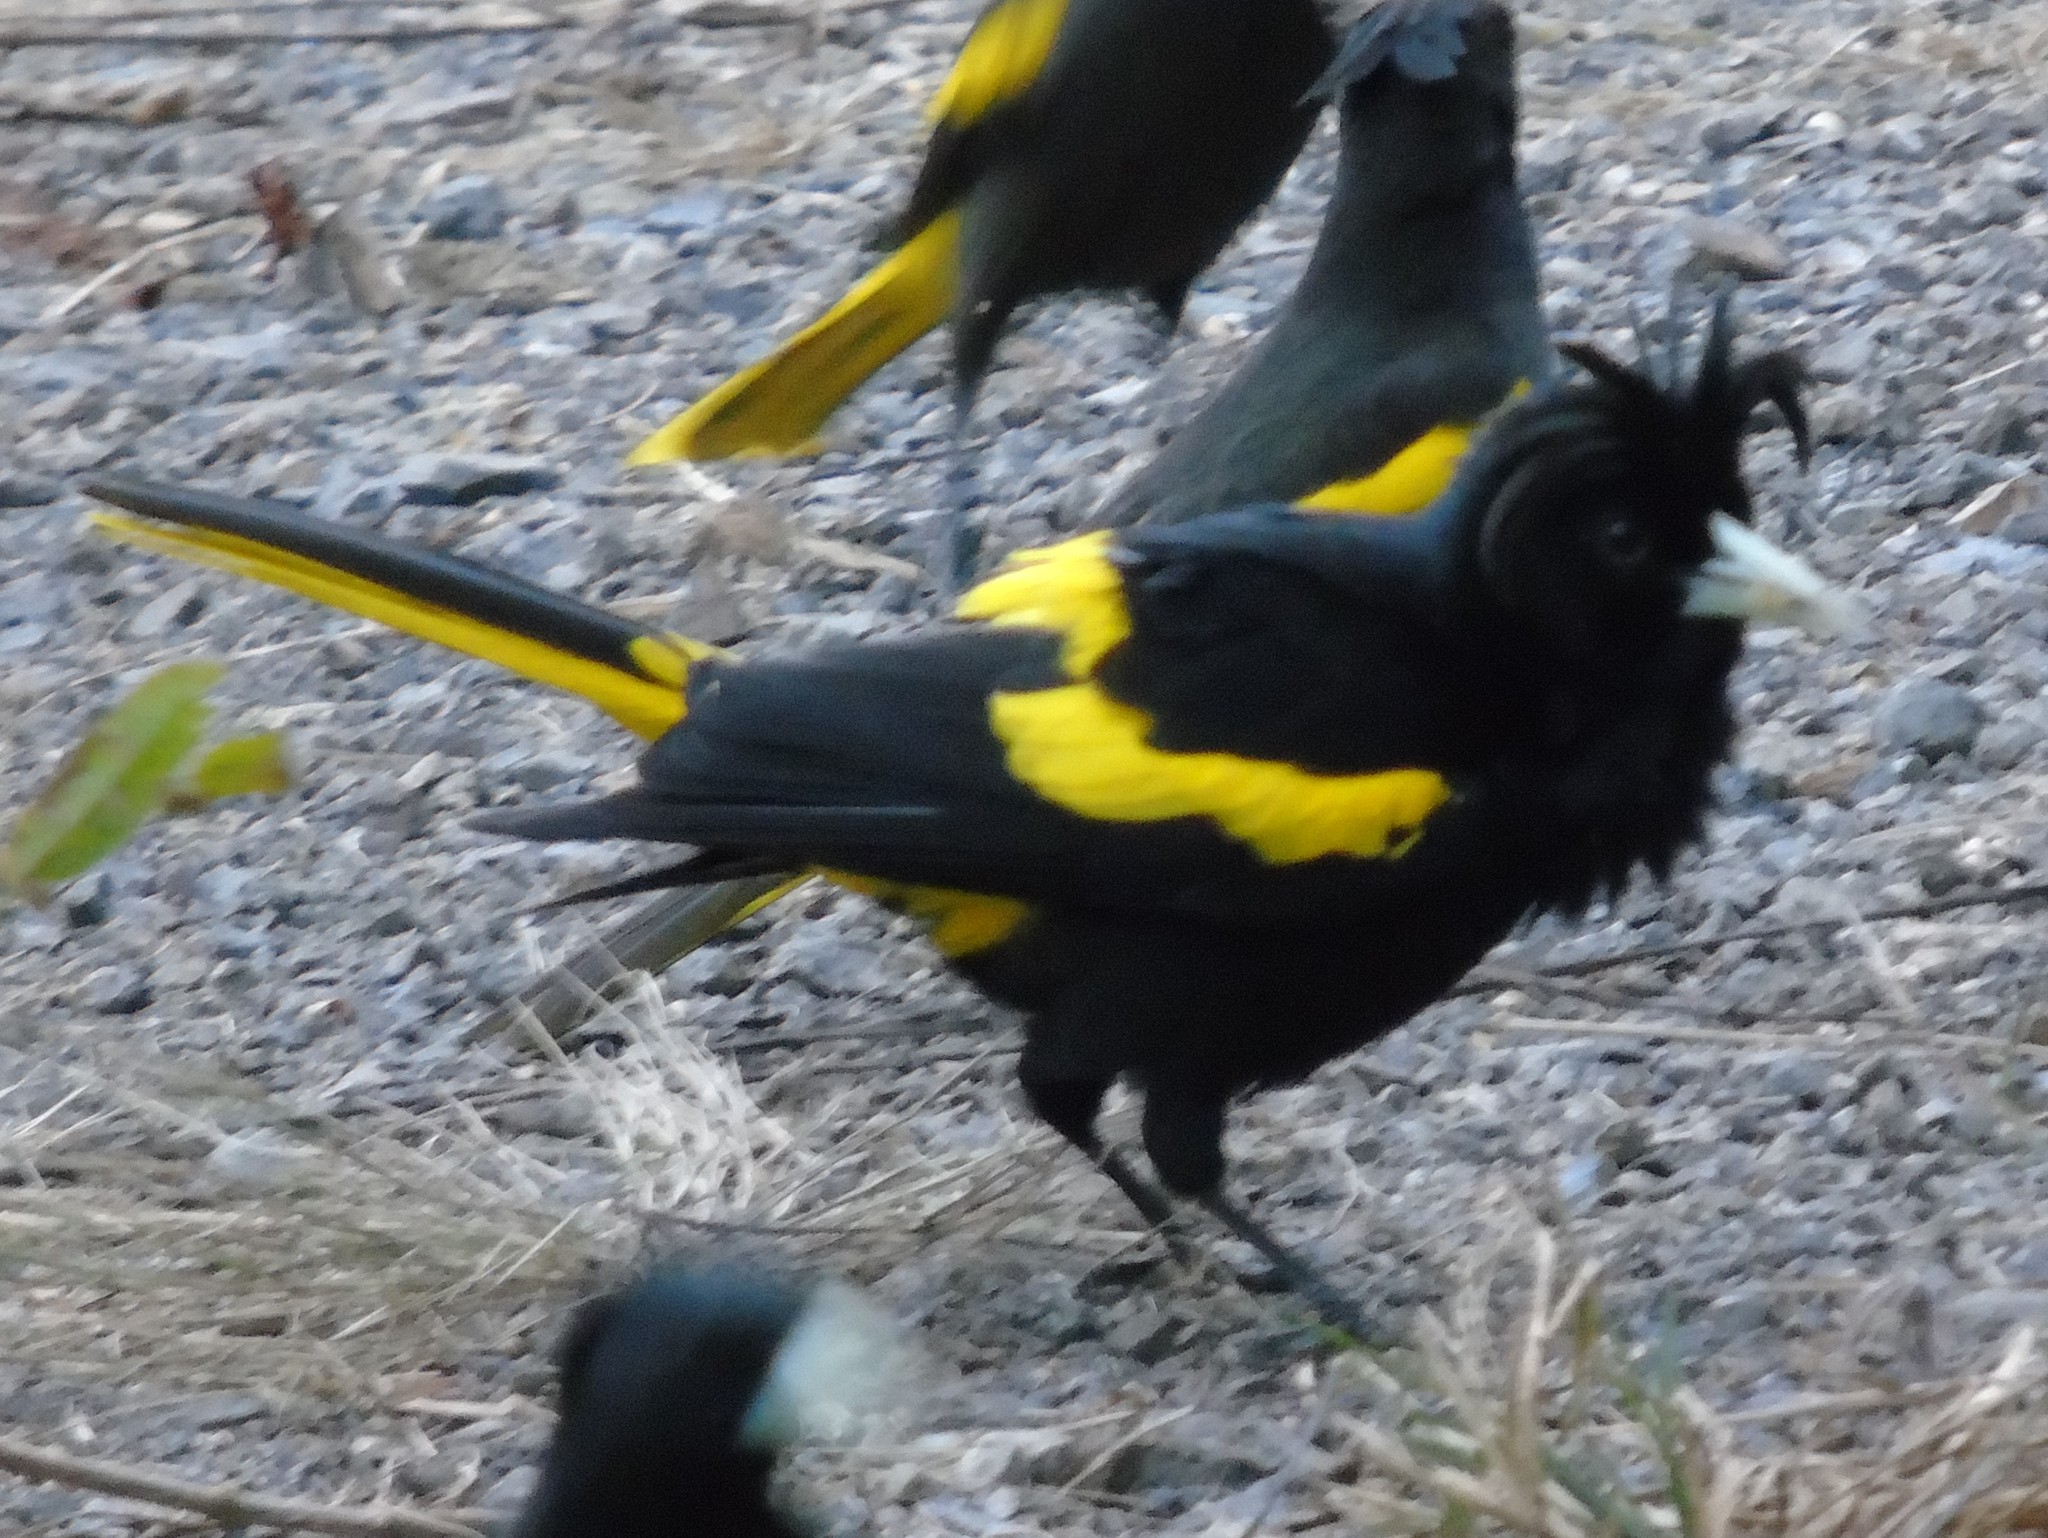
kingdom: Animalia
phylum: Chordata
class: Aves
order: Passeriformes
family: Icteridae
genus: Cacicus
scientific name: Cacicus melanicterus
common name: Yellow-winged cacique
